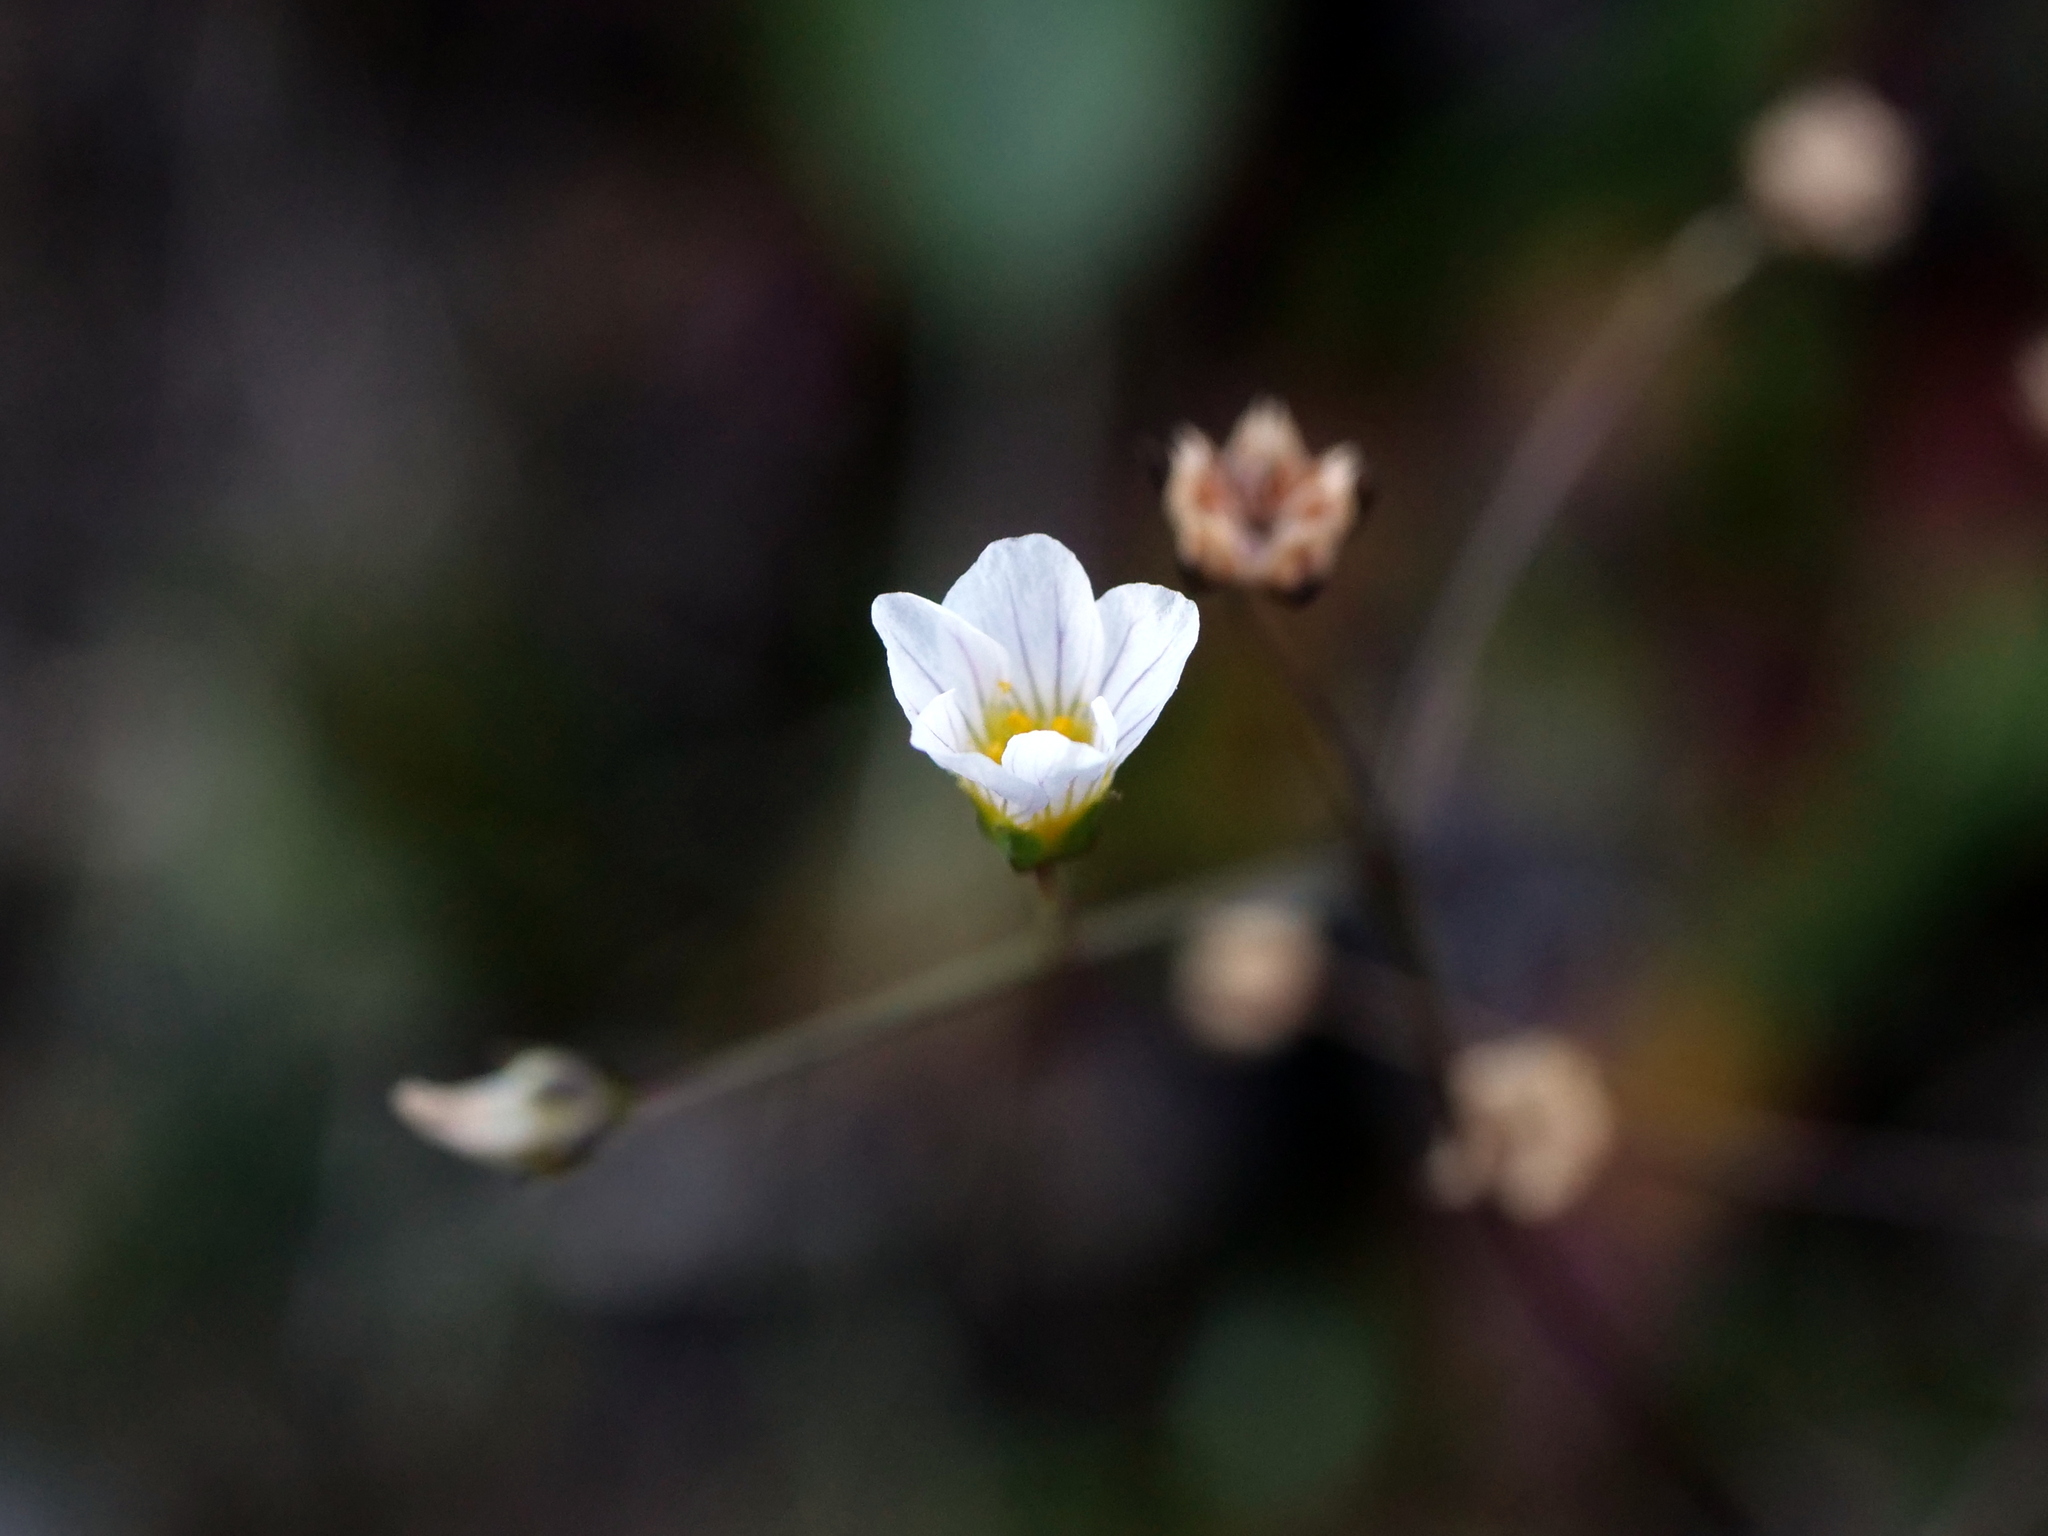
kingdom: Plantae
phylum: Tracheophyta
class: Magnoliopsida
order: Malpighiales
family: Linaceae
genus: Linum
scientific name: Linum catharticum
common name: Fairy flax
